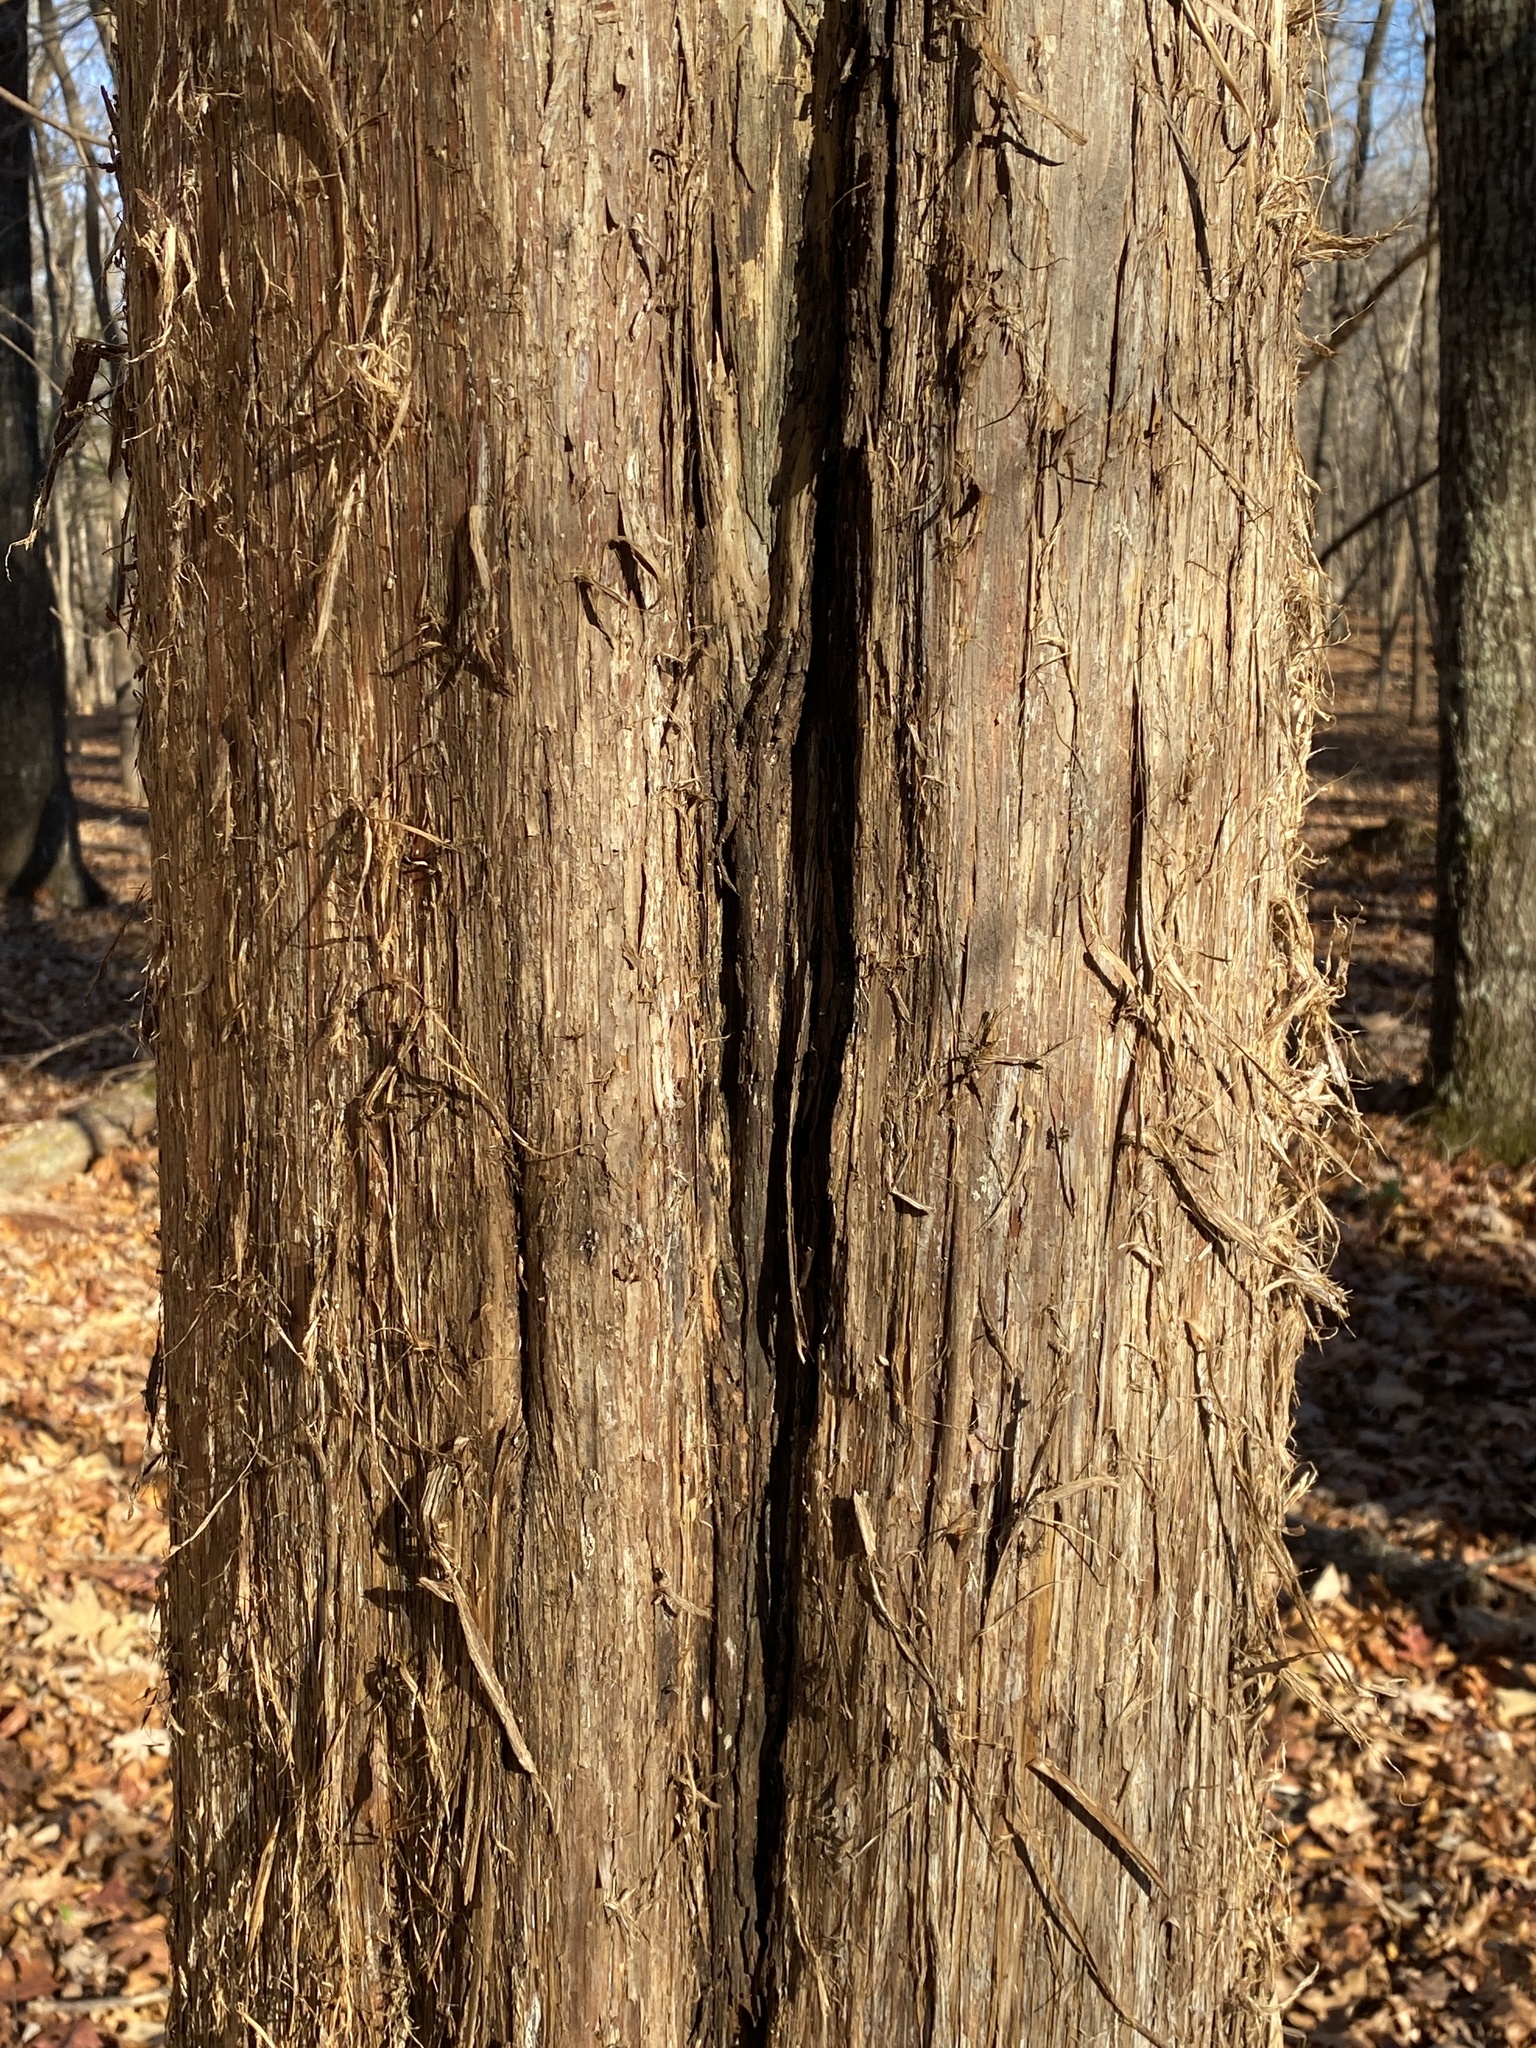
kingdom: Plantae
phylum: Tracheophyta
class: Pinopsida
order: Pinales
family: Cupressaceae
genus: Juniperus
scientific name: Juniperus virginiana
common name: Red juniper
